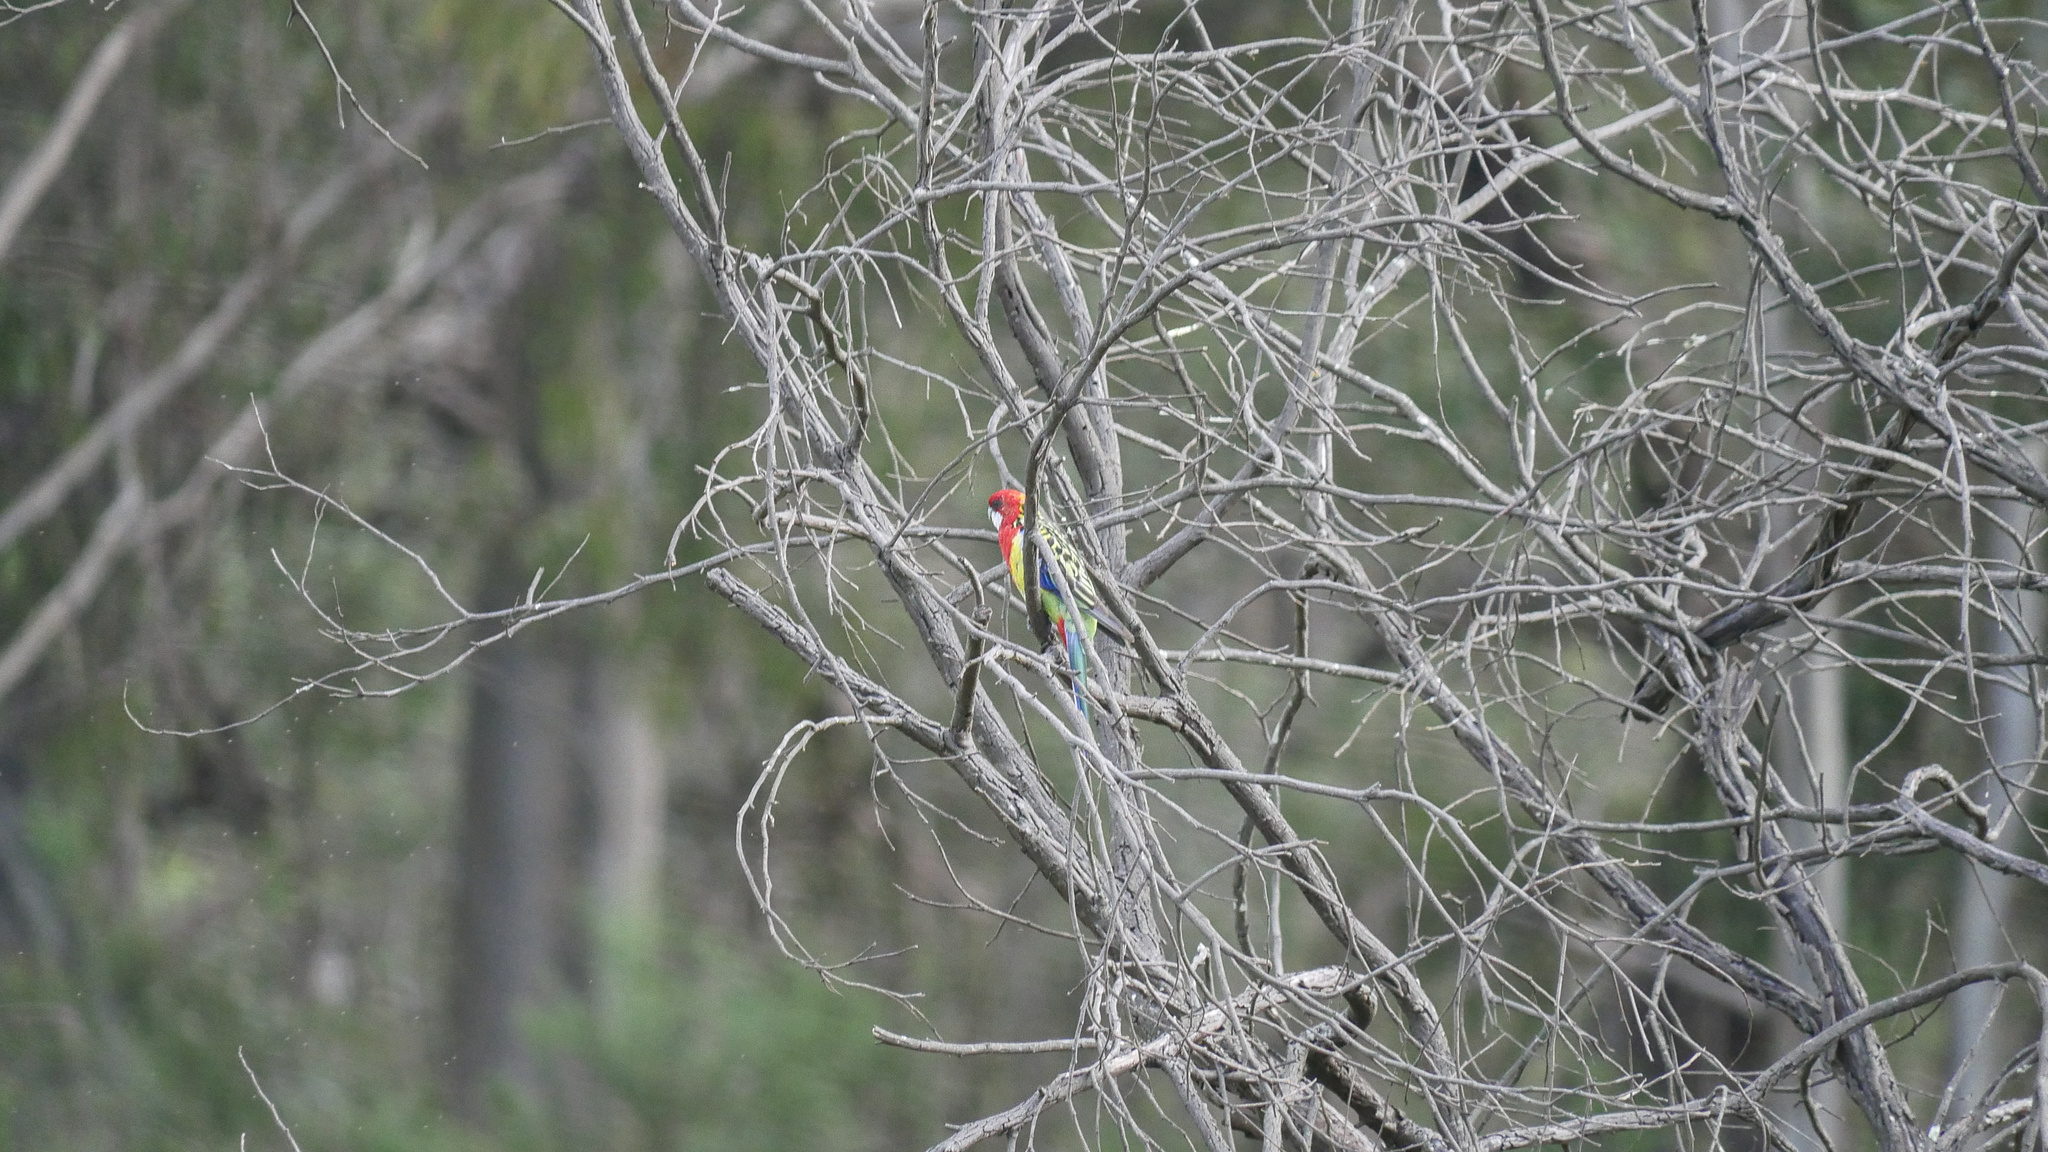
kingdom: Animalia
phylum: Chordata
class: Aves
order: Psittaciformes
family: Psittacidae
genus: Platycercus
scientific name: Platycercus eximius
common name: Eastern rosella
